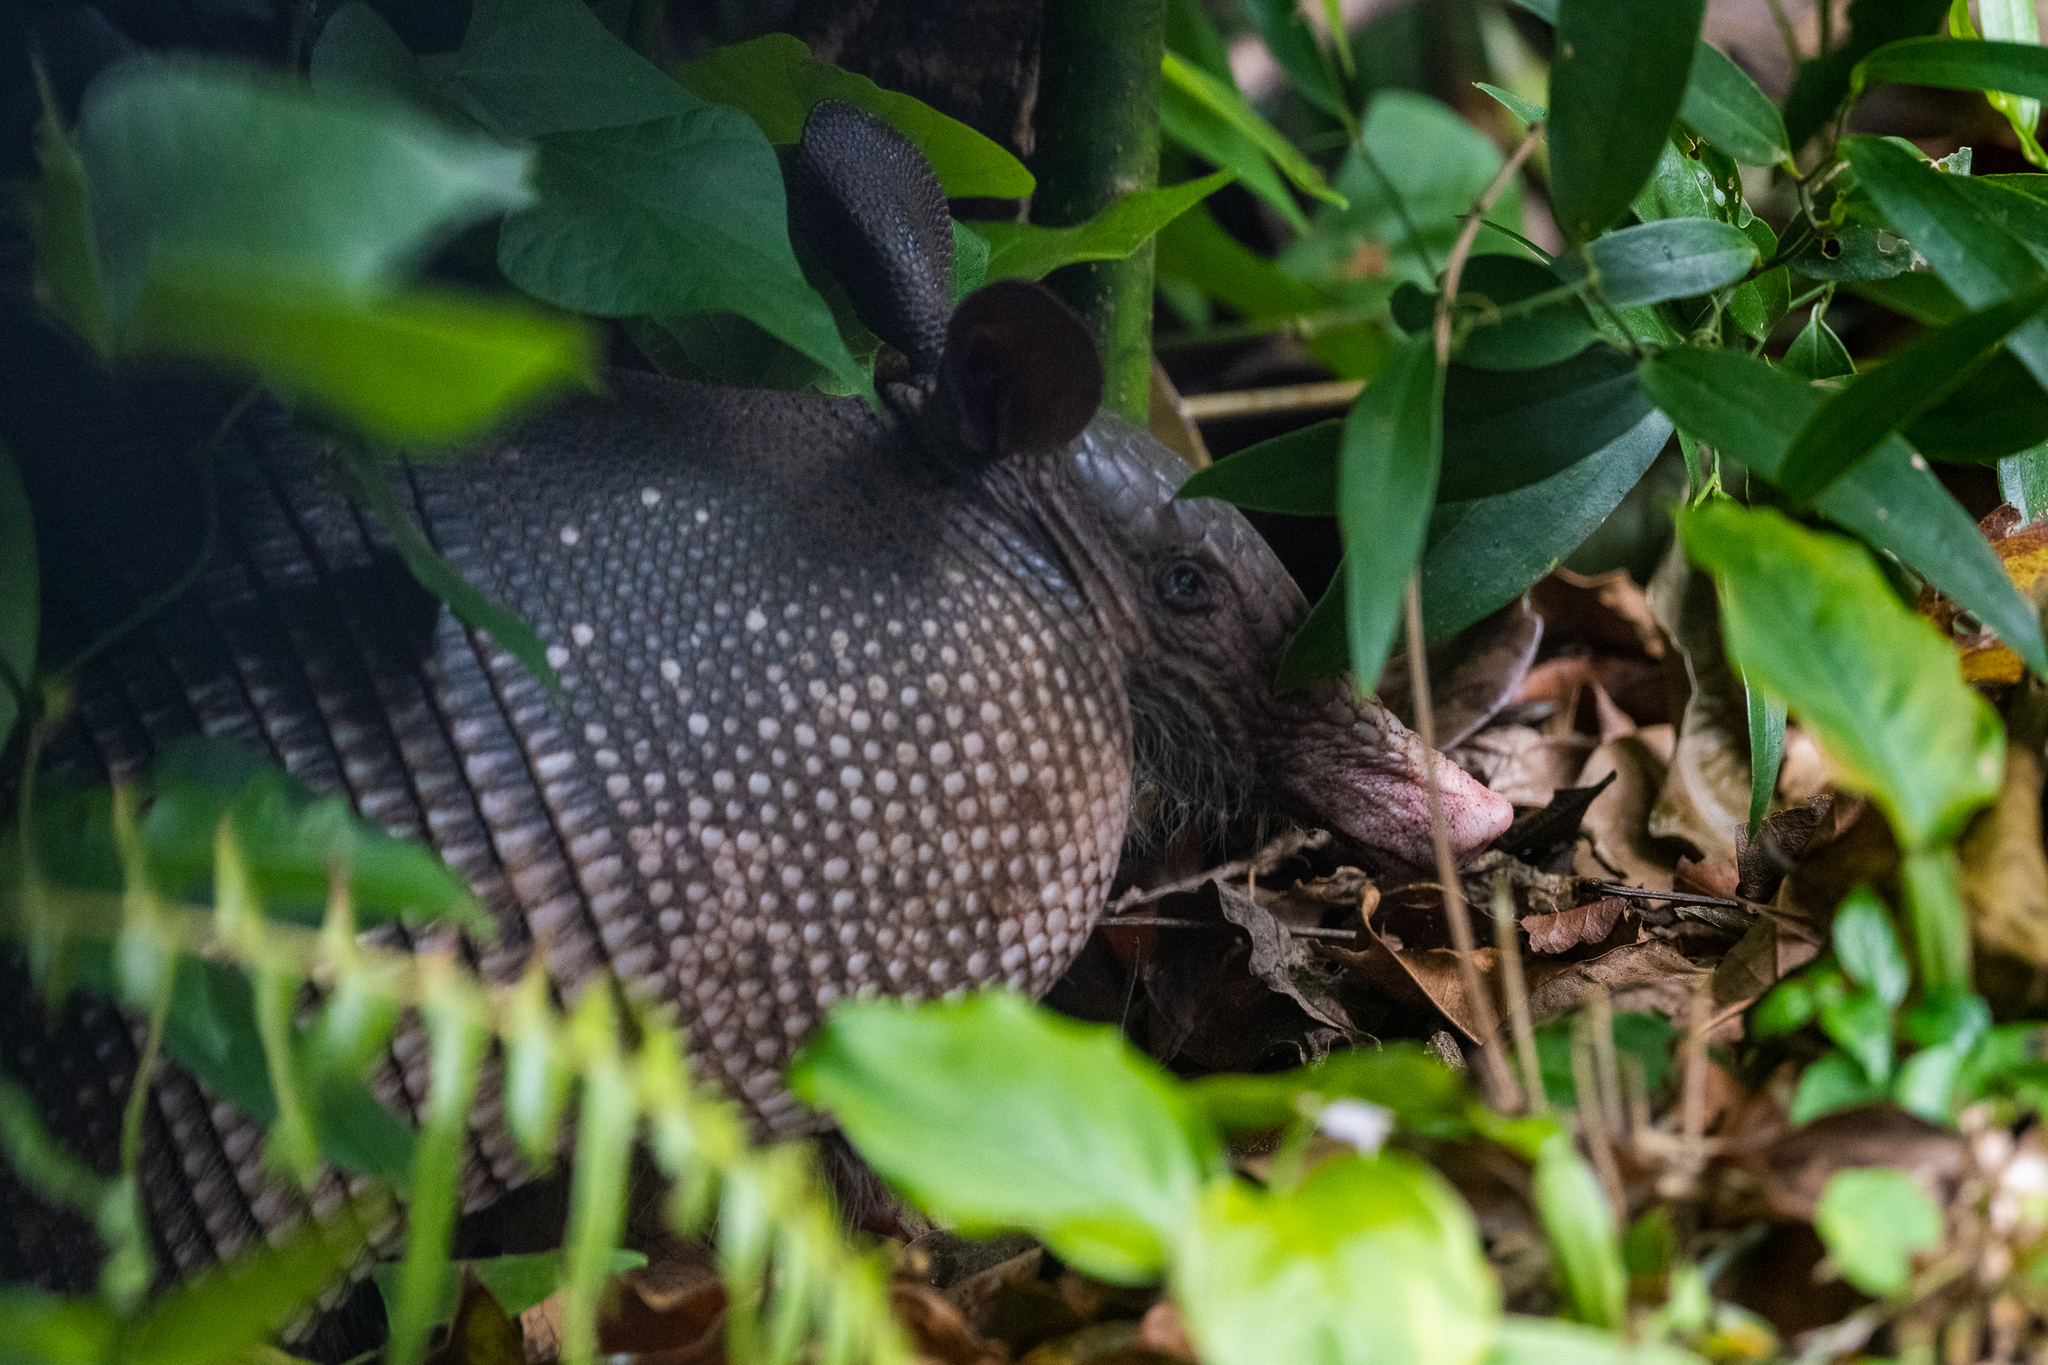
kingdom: Animalia
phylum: Chordata
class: Mammalia
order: Cingulata
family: Dasypodidae
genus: Dasypus
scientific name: Dasypus novemcinctus
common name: Nine-banded armadillo
